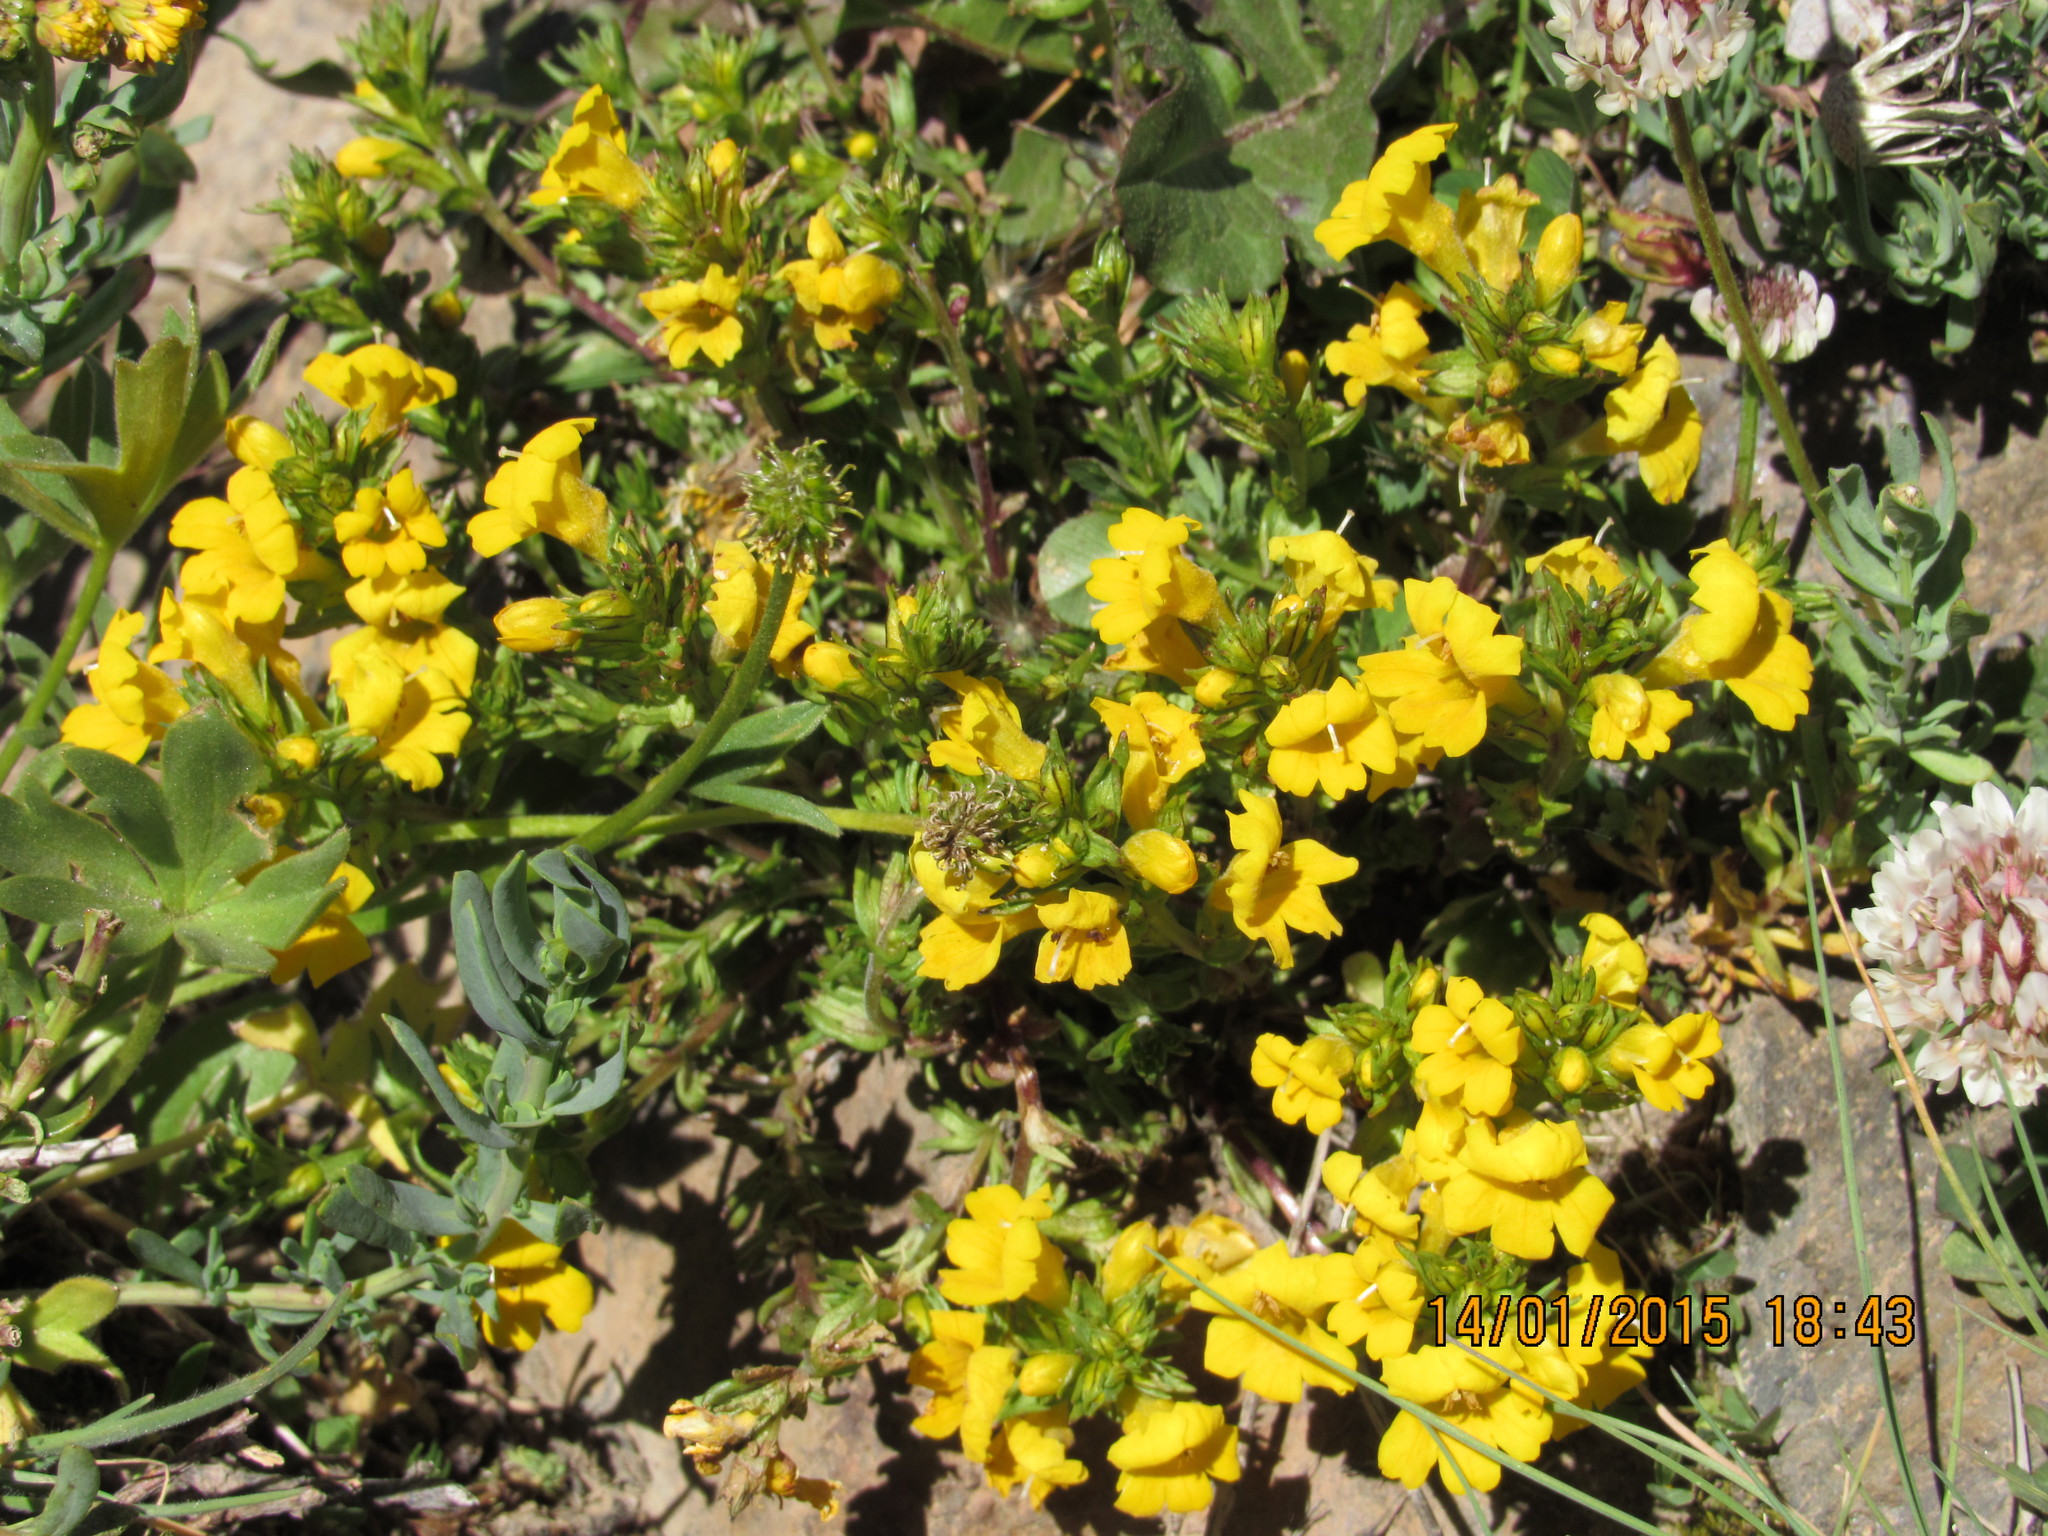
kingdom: Plantae
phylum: Tracheophyta
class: Magnoliopsida
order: Lamiales
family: Orobanchaceae
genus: Euphrasia
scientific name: Euphrasia subexserta
